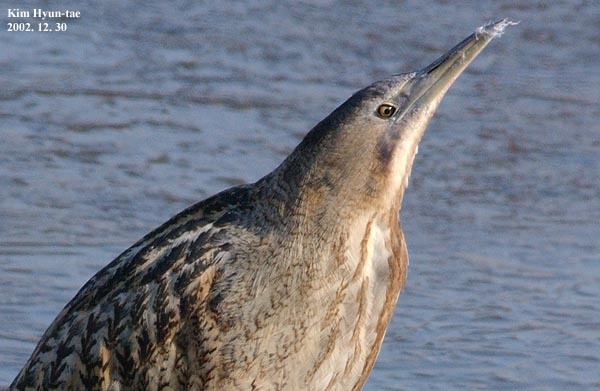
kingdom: Animalia
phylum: Chordata
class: Aves
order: Pelecaniformes
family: Ardeidae
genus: Botaurus
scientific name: Botaurus stellaris
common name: Eurasian bittern
